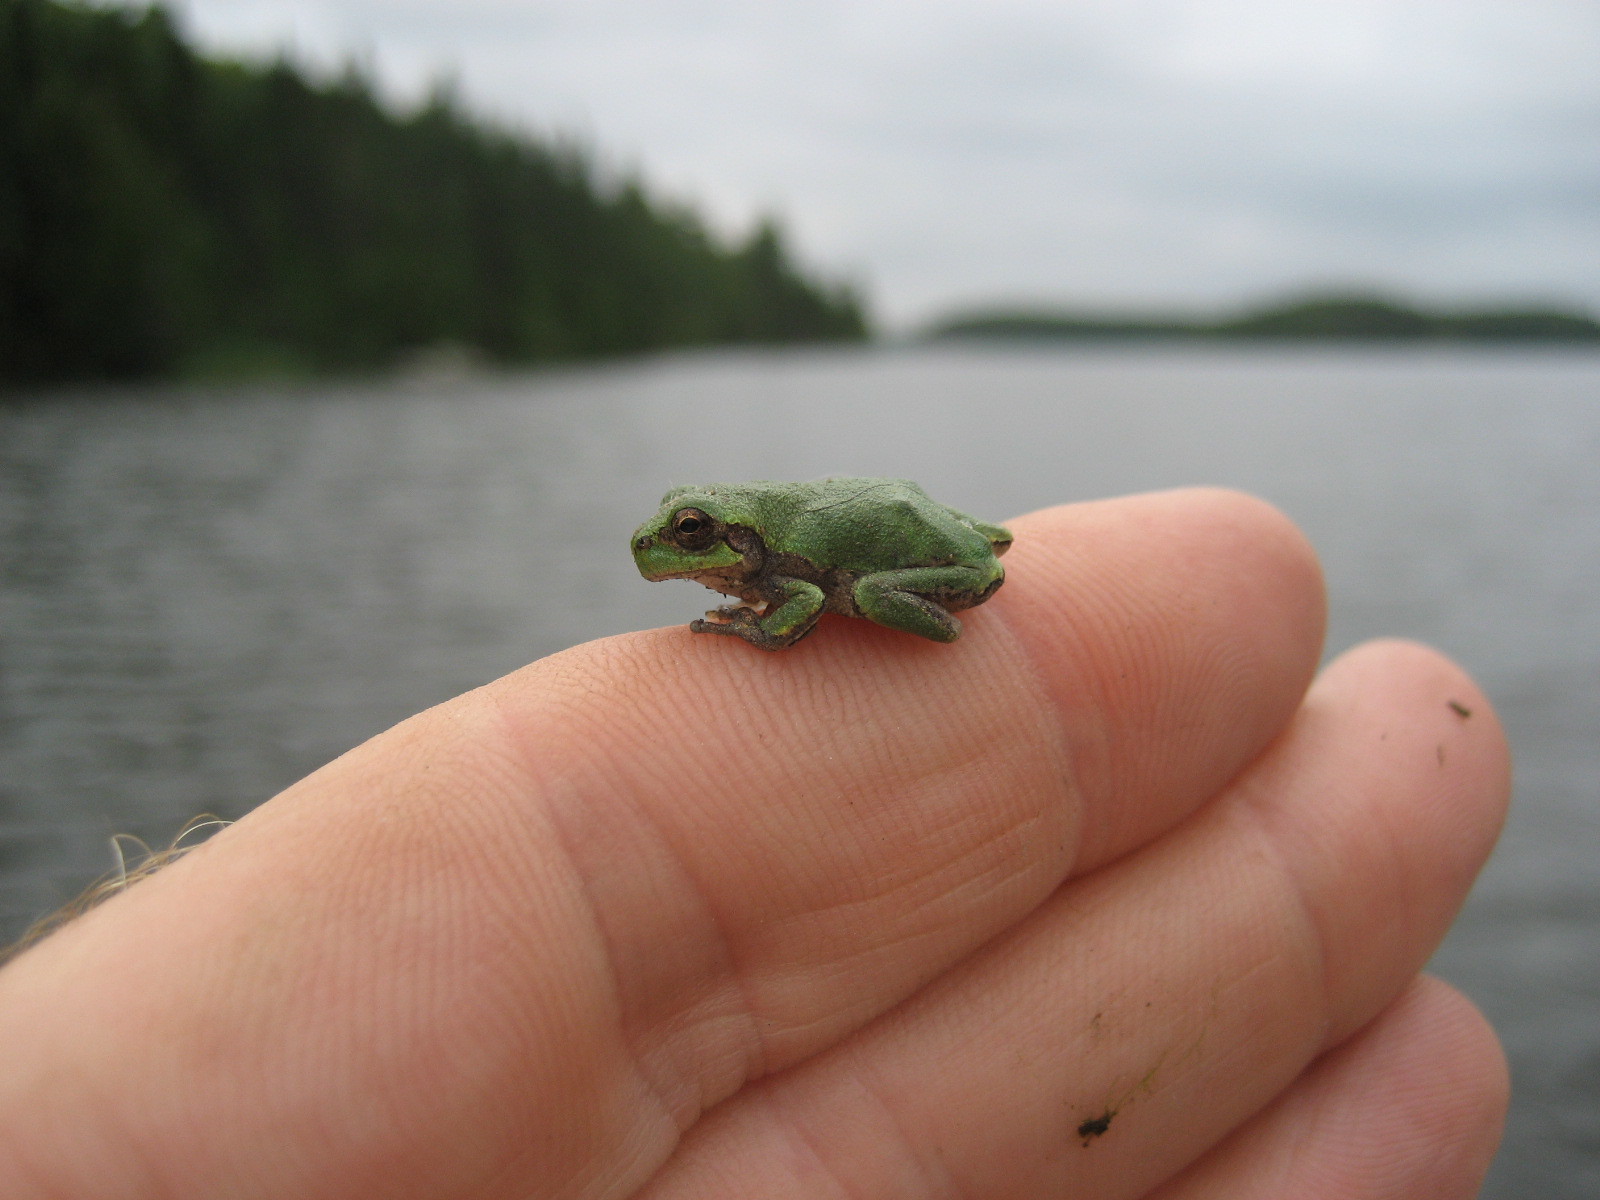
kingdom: Animalia
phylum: Chordata
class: Amphibia
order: Anura
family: Hylidae
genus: Dryophytes
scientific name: Dryophytes versicolor
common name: Gray treefrog
